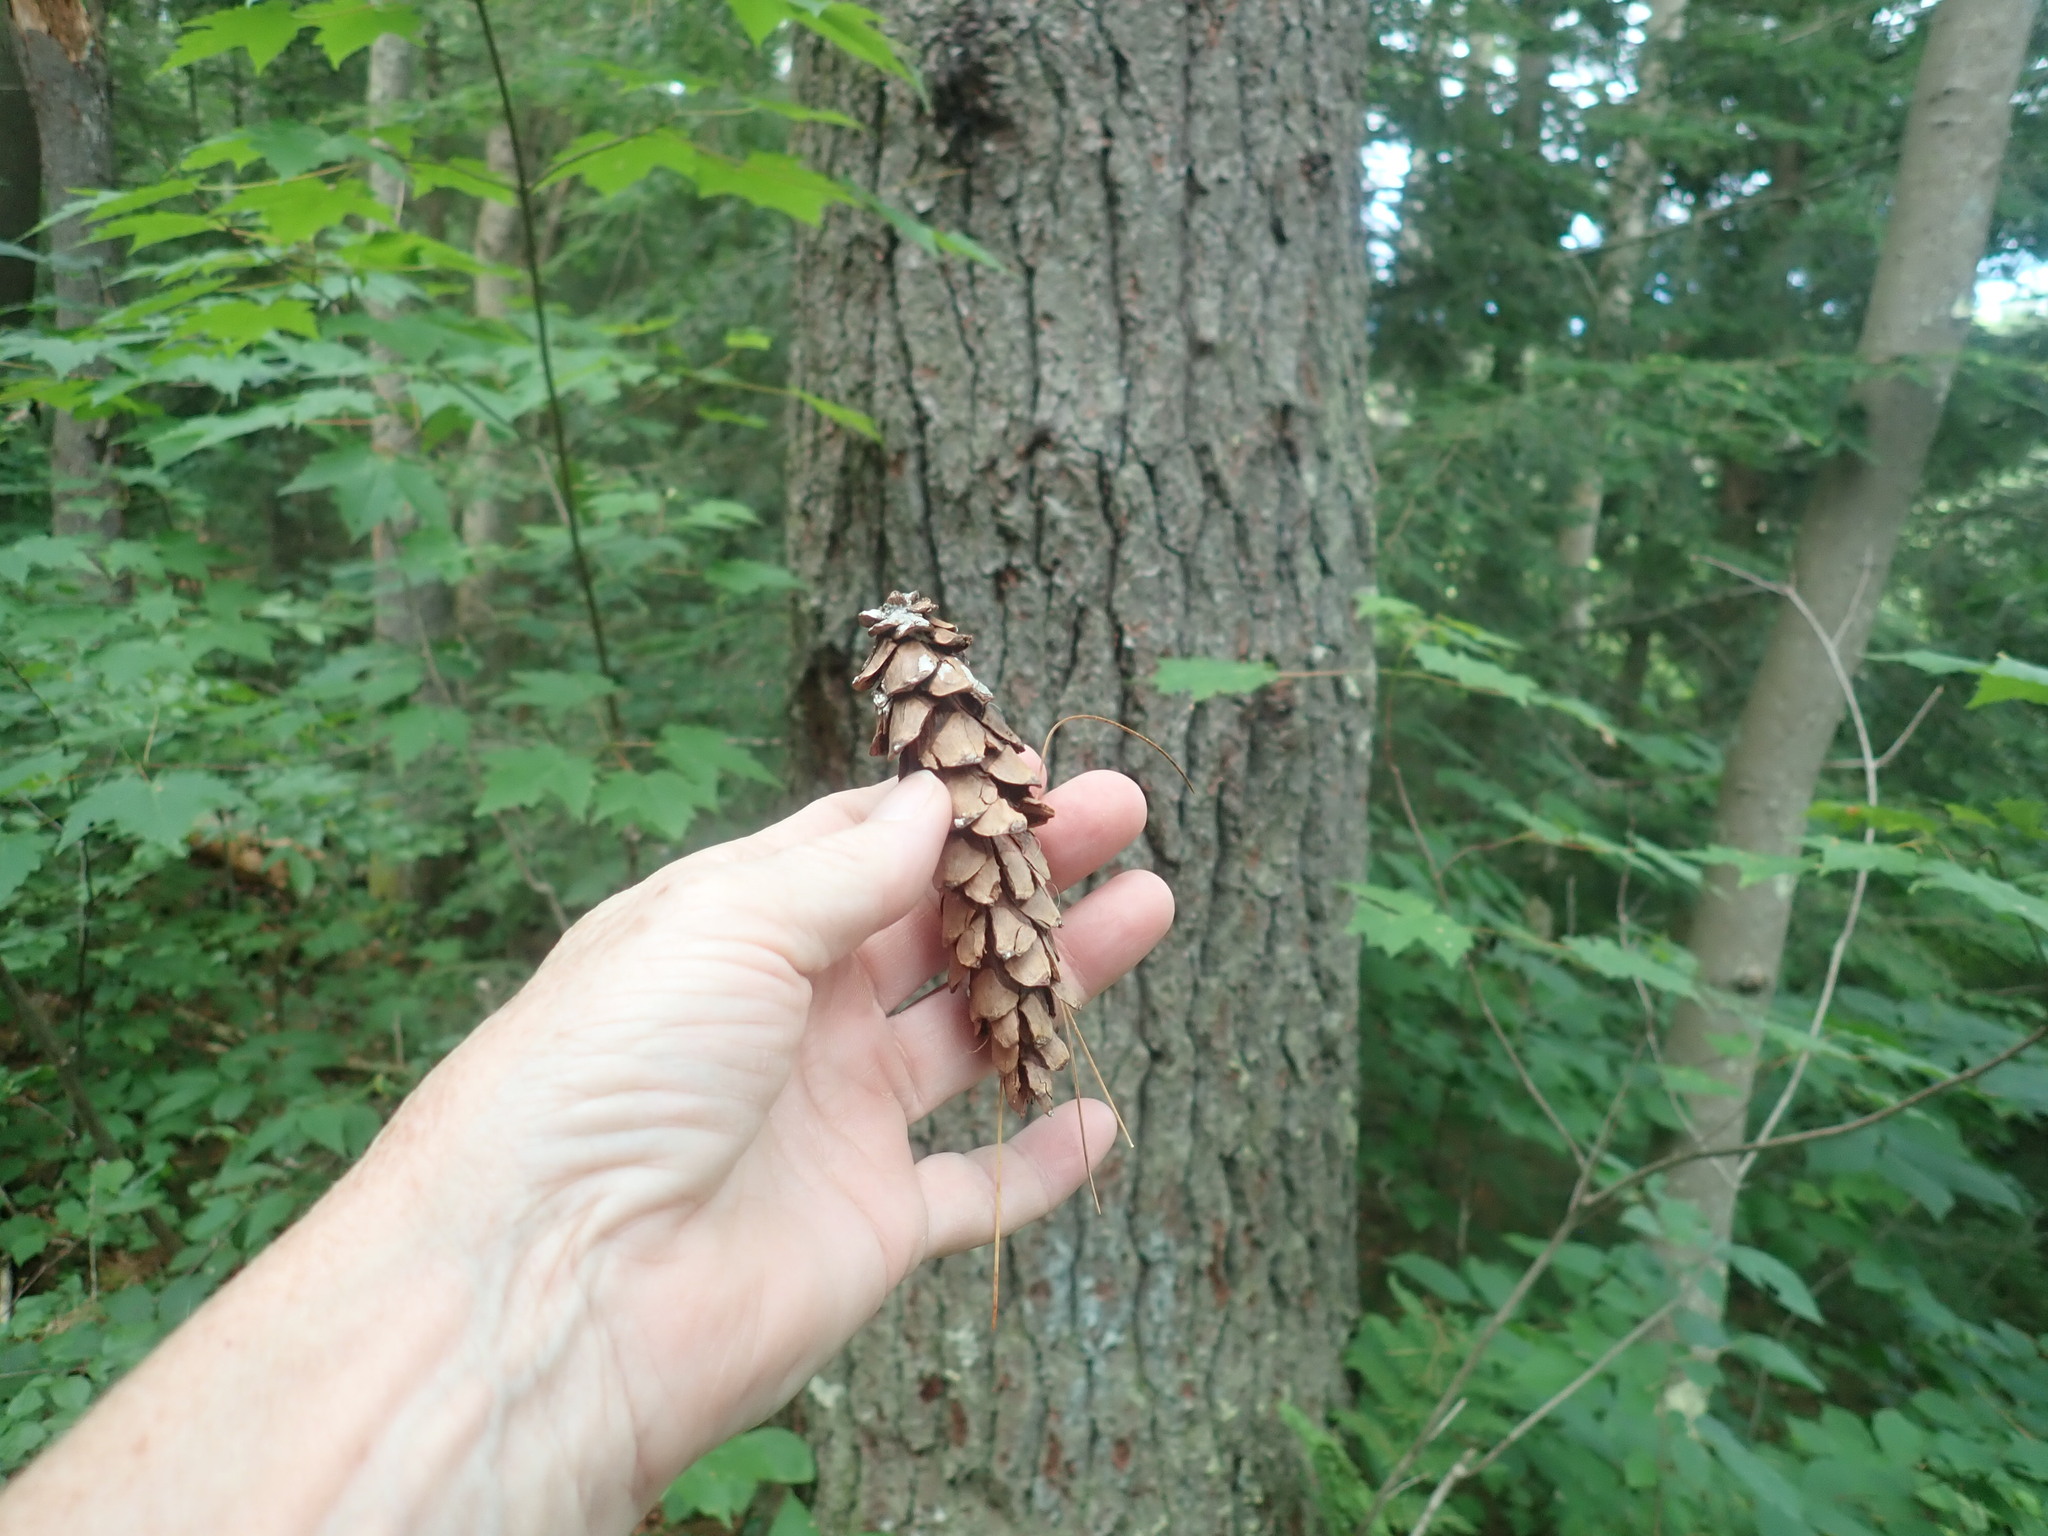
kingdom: Plantae
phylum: Tracheophyta
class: Pinopsida
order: Pinales
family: Pinaceae
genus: Pinus
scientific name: Pinus strobus
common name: Weymouth pine
